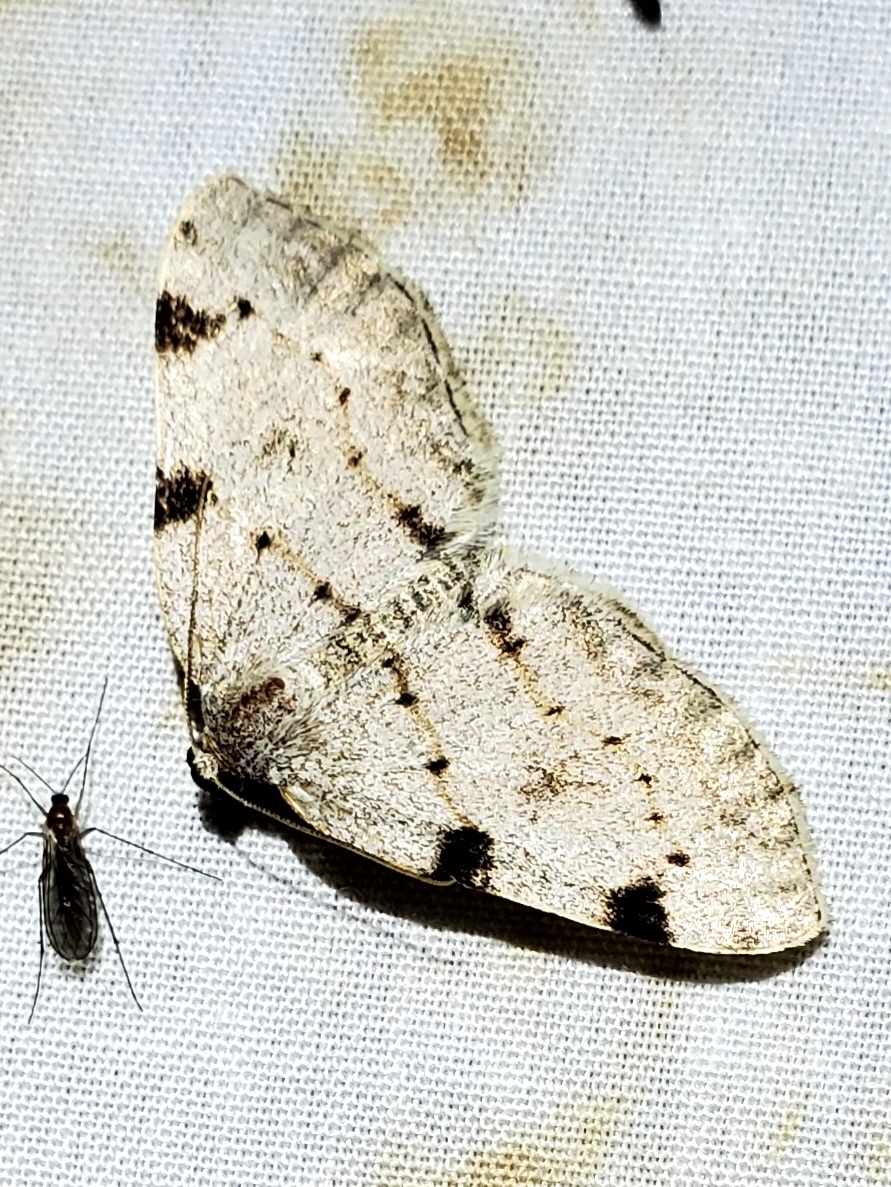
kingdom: Animalia
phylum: Arthropoda
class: Insecta
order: Lepidoptera
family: Geometridae
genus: Heterophleps
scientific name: Heterophleps refusaria
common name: Three-patched bigwing
